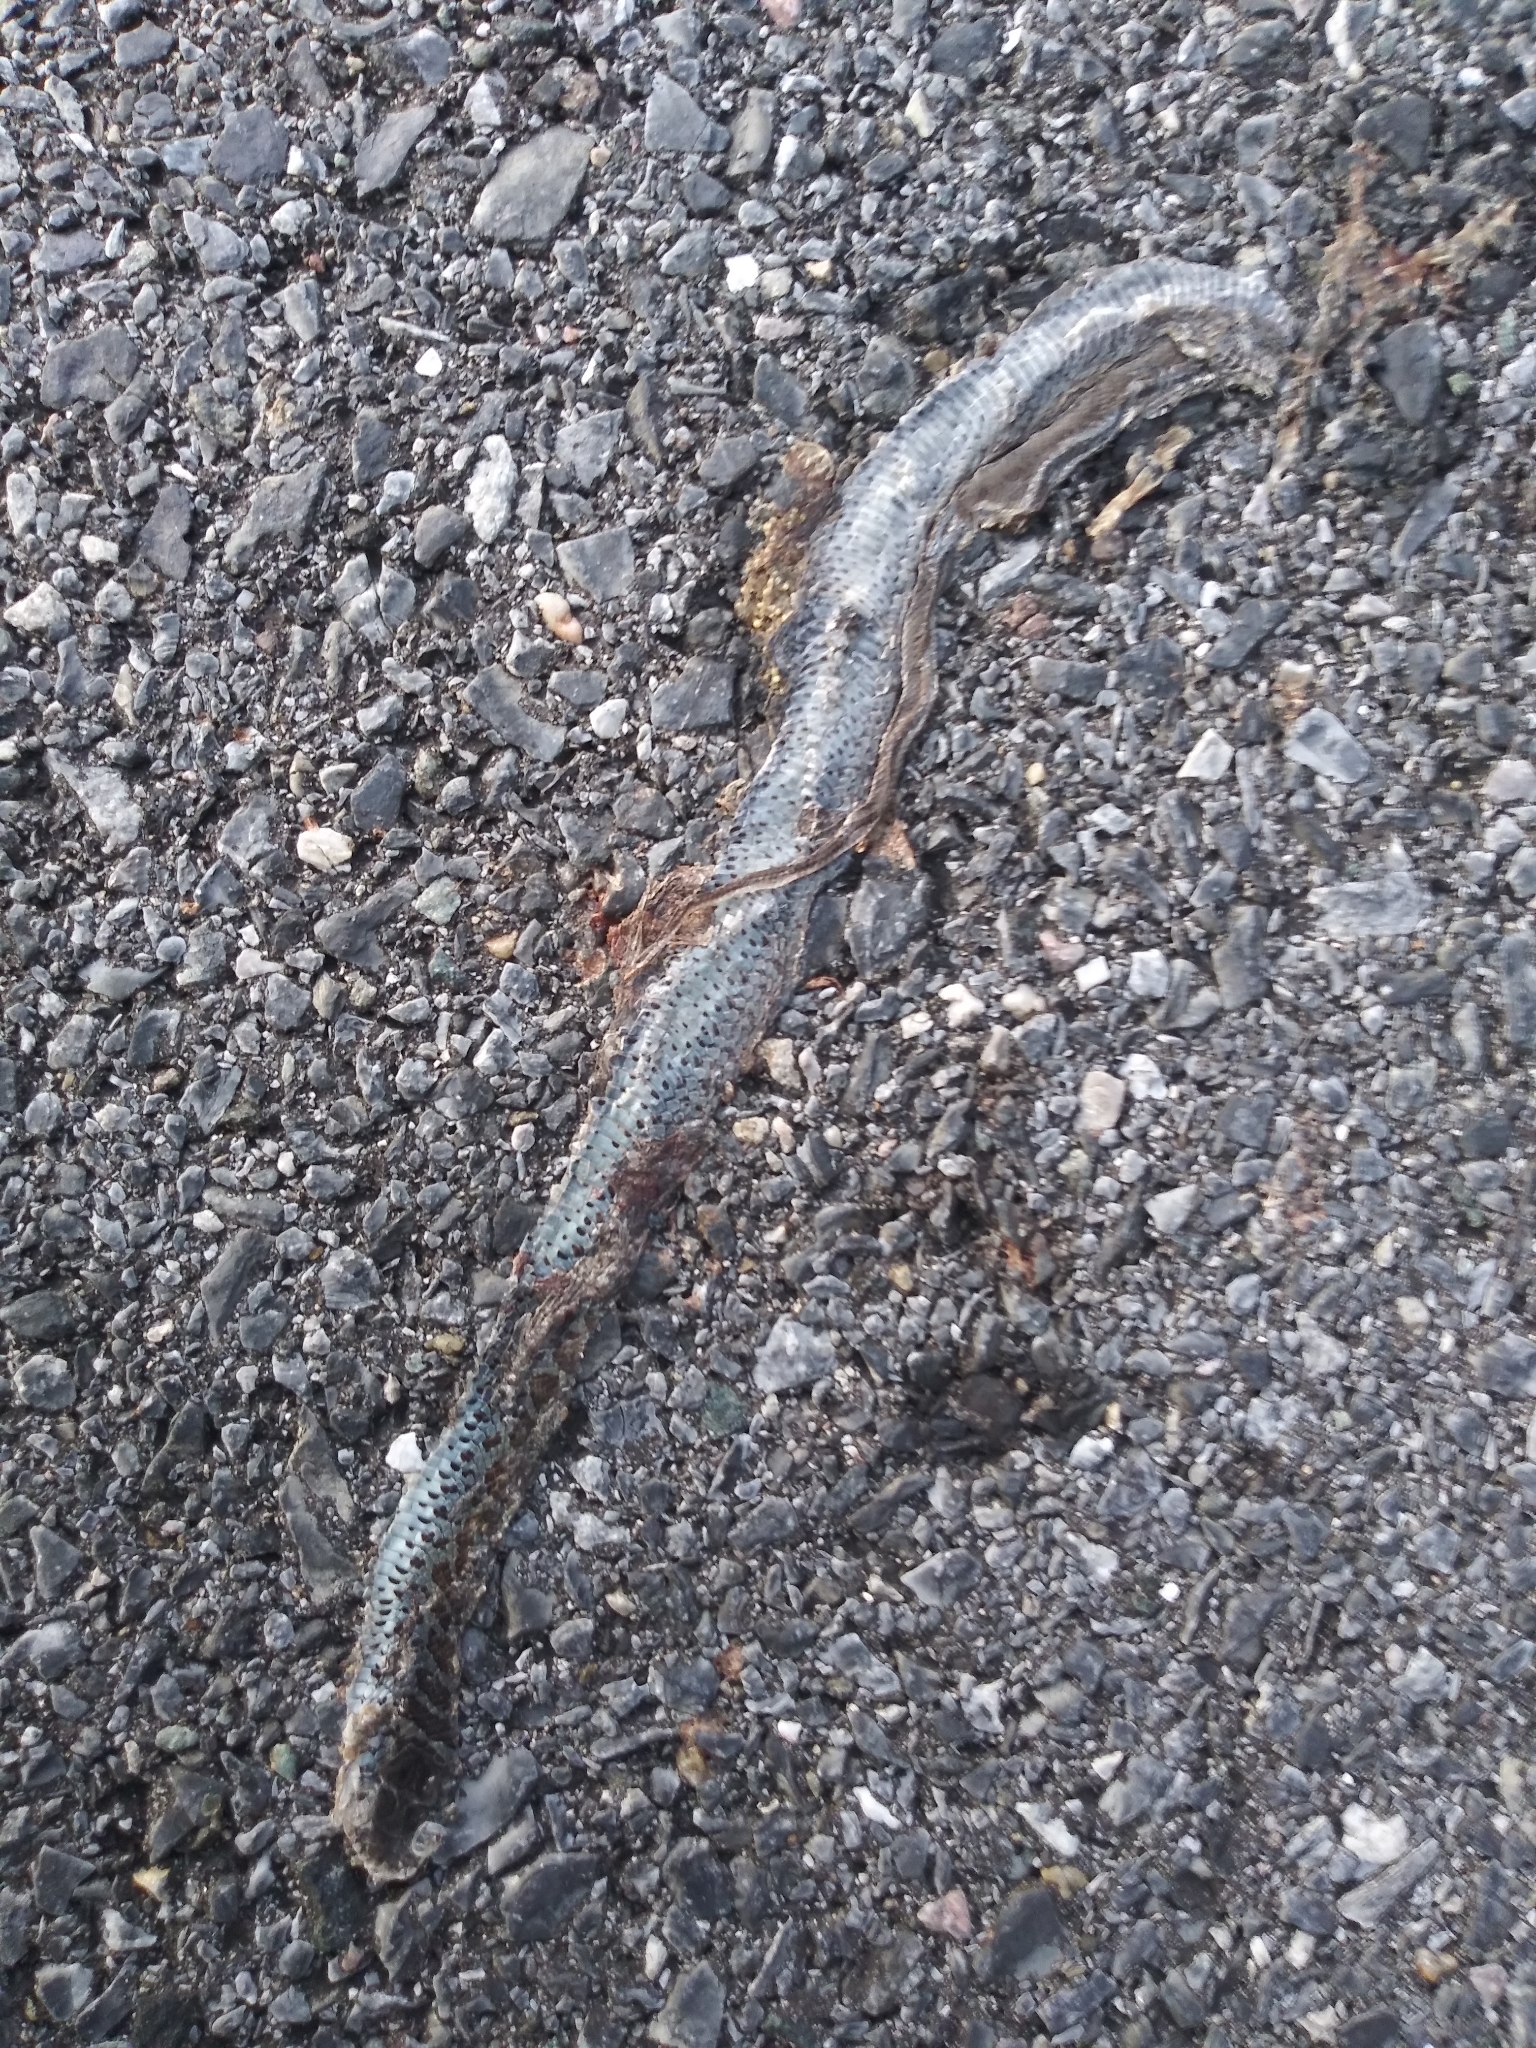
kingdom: Animalia
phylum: Chordata
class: Squamata
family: Colubridae
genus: Coluber
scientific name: Coluber constrictor
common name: Eastern racer
